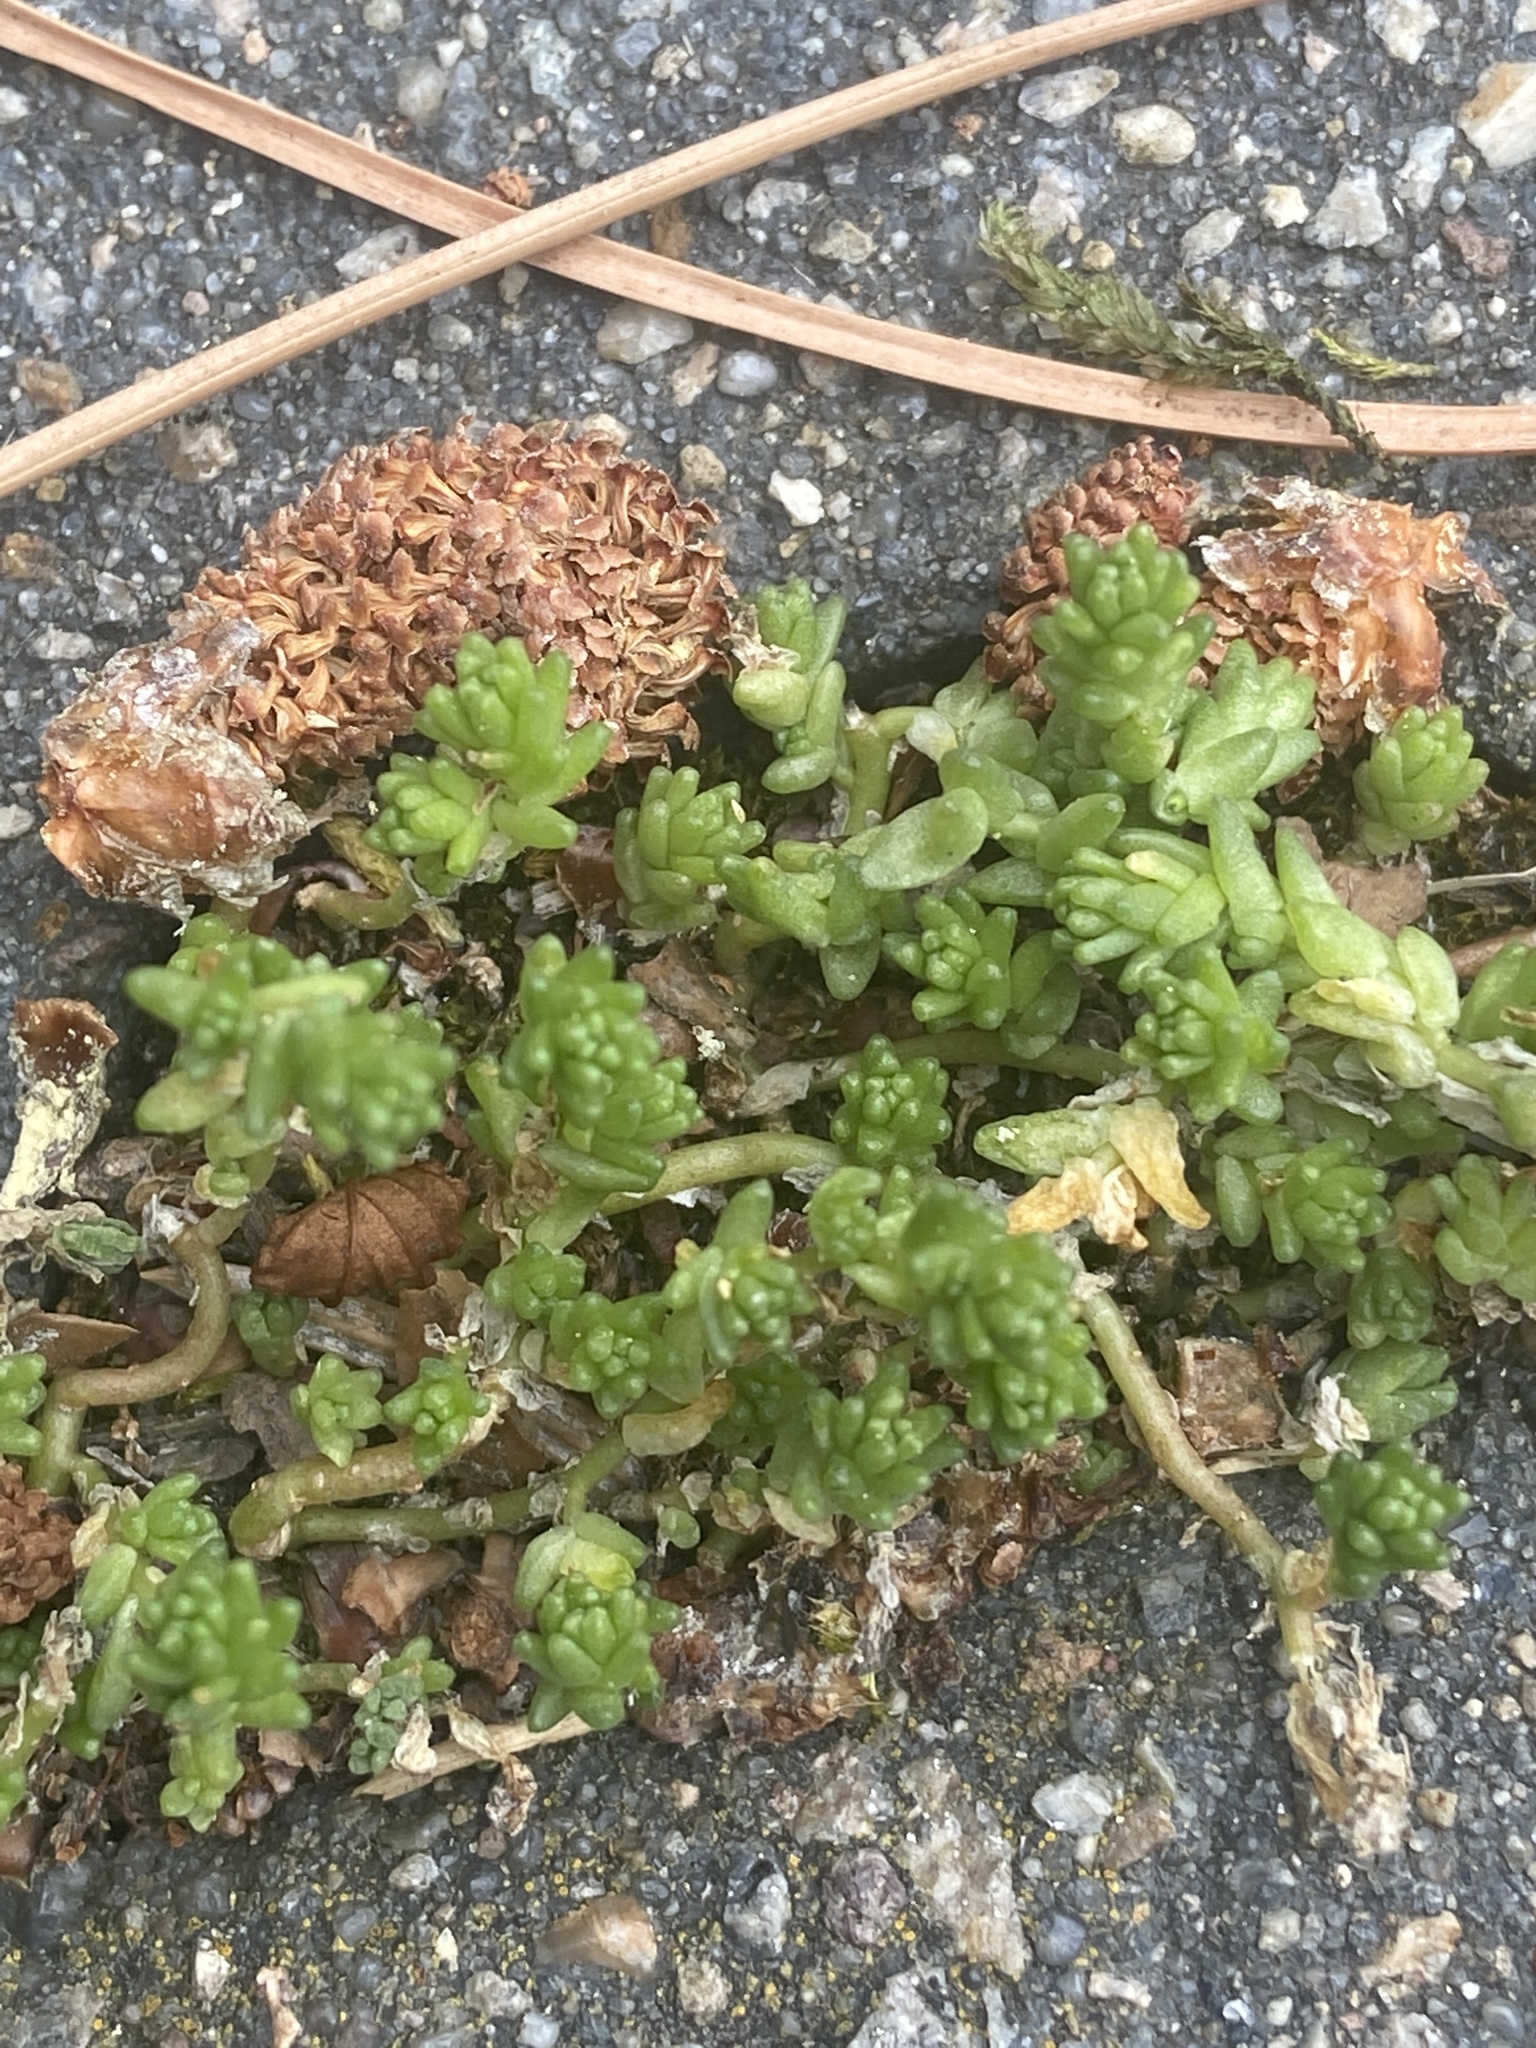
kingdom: Plantae
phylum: Tracheophyta
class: Magnoliopsida
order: Saxifragales
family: Crassulaceae
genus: Sedum
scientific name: Sedum acre
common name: Biting stonecrop
